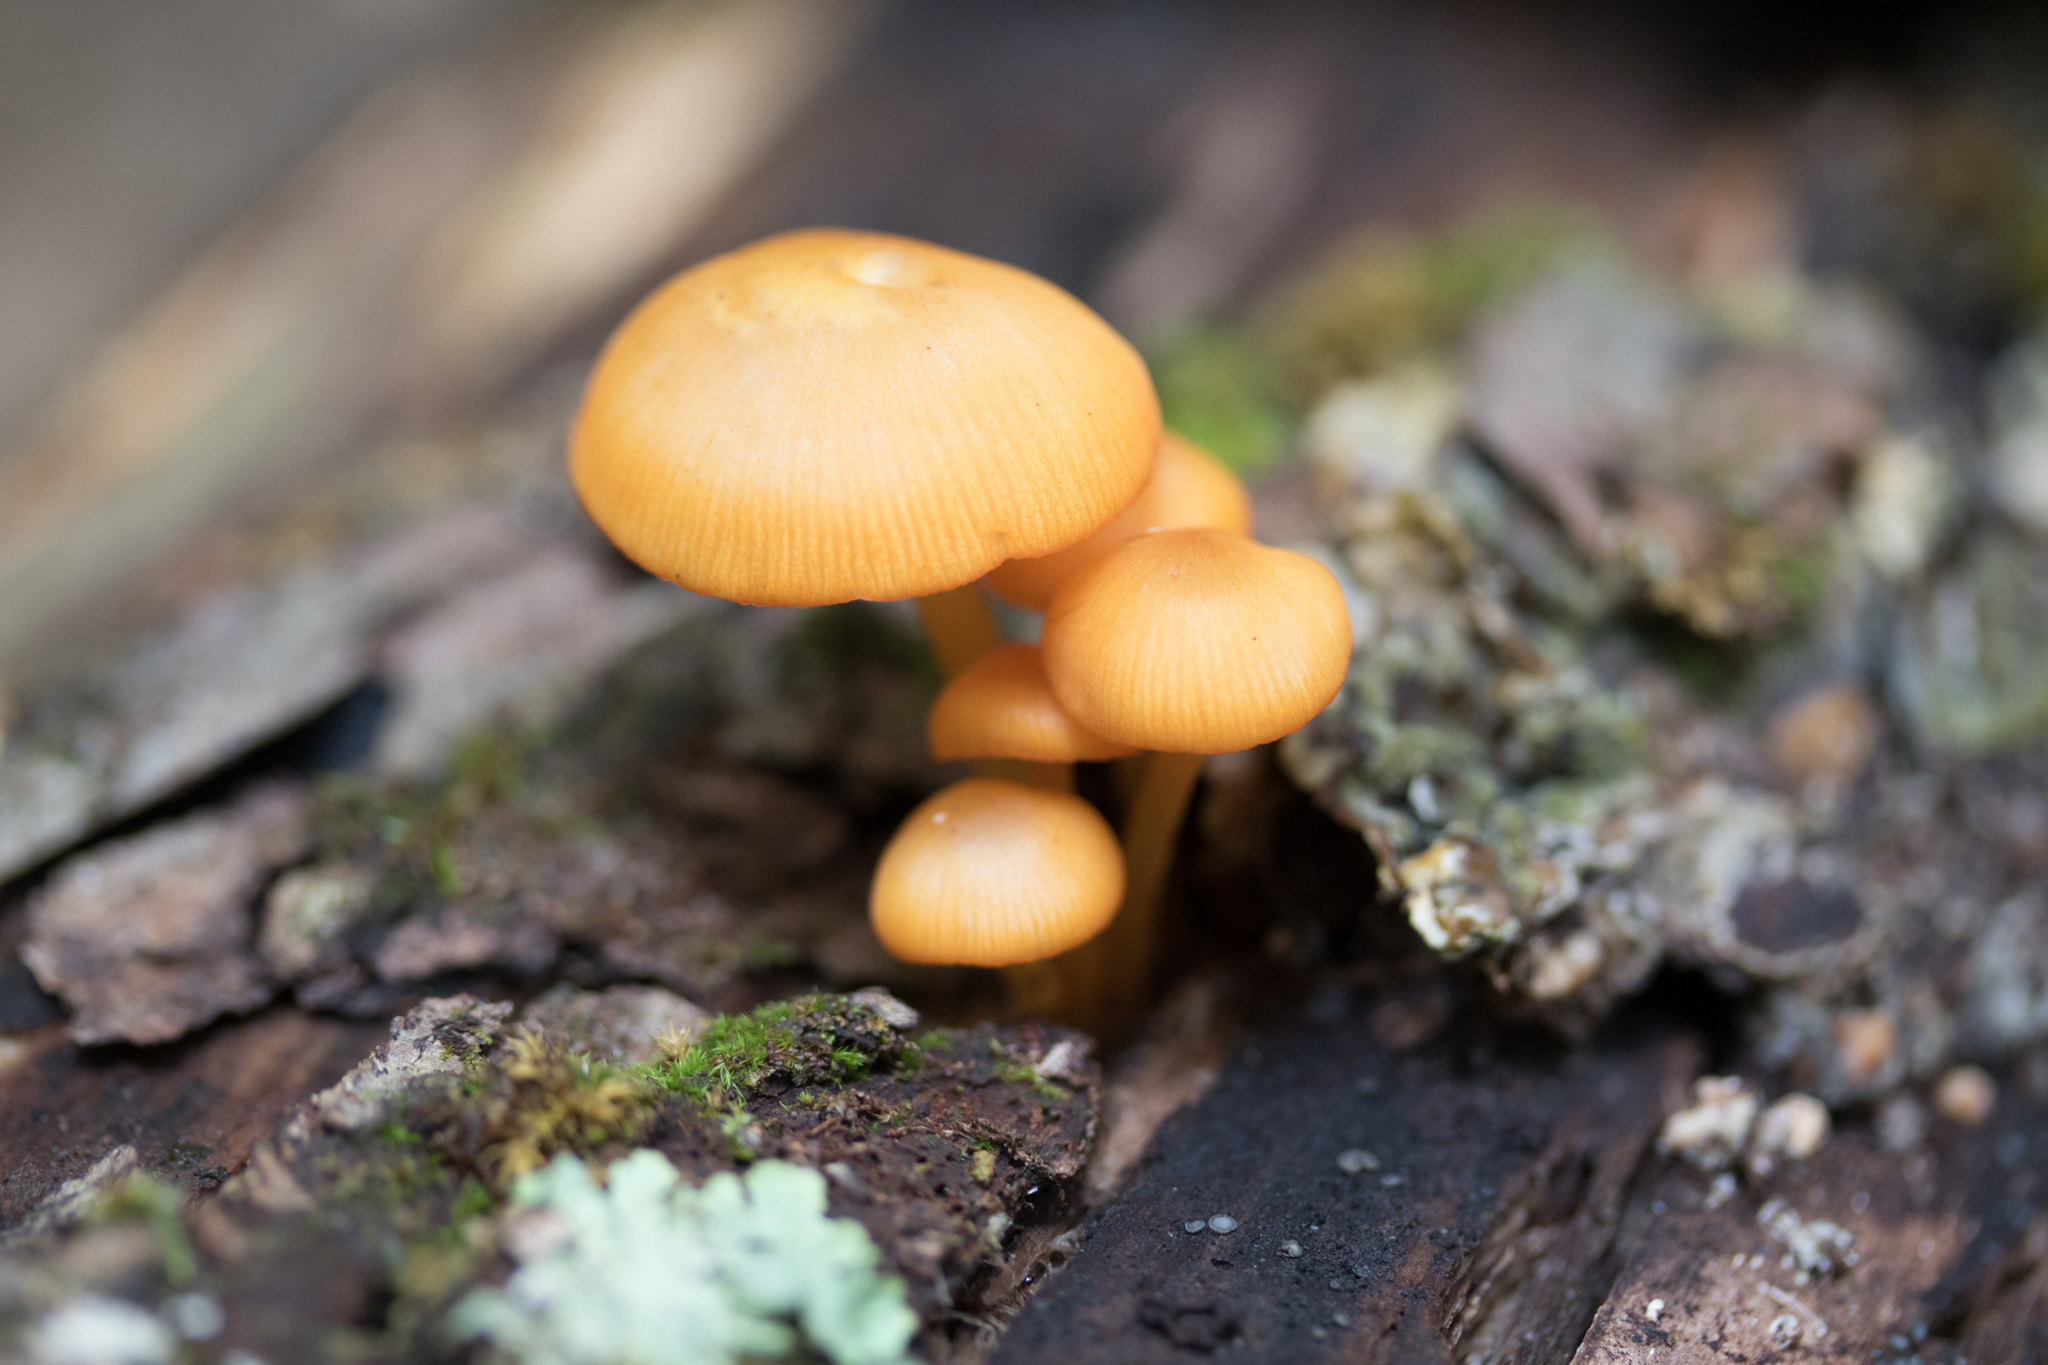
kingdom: Fungi
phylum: Basidiomycota
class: Agaricomycetes
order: Agaricales
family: Mycenaceae
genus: Mycena
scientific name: Mycena leaiana
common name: Orange mycena
